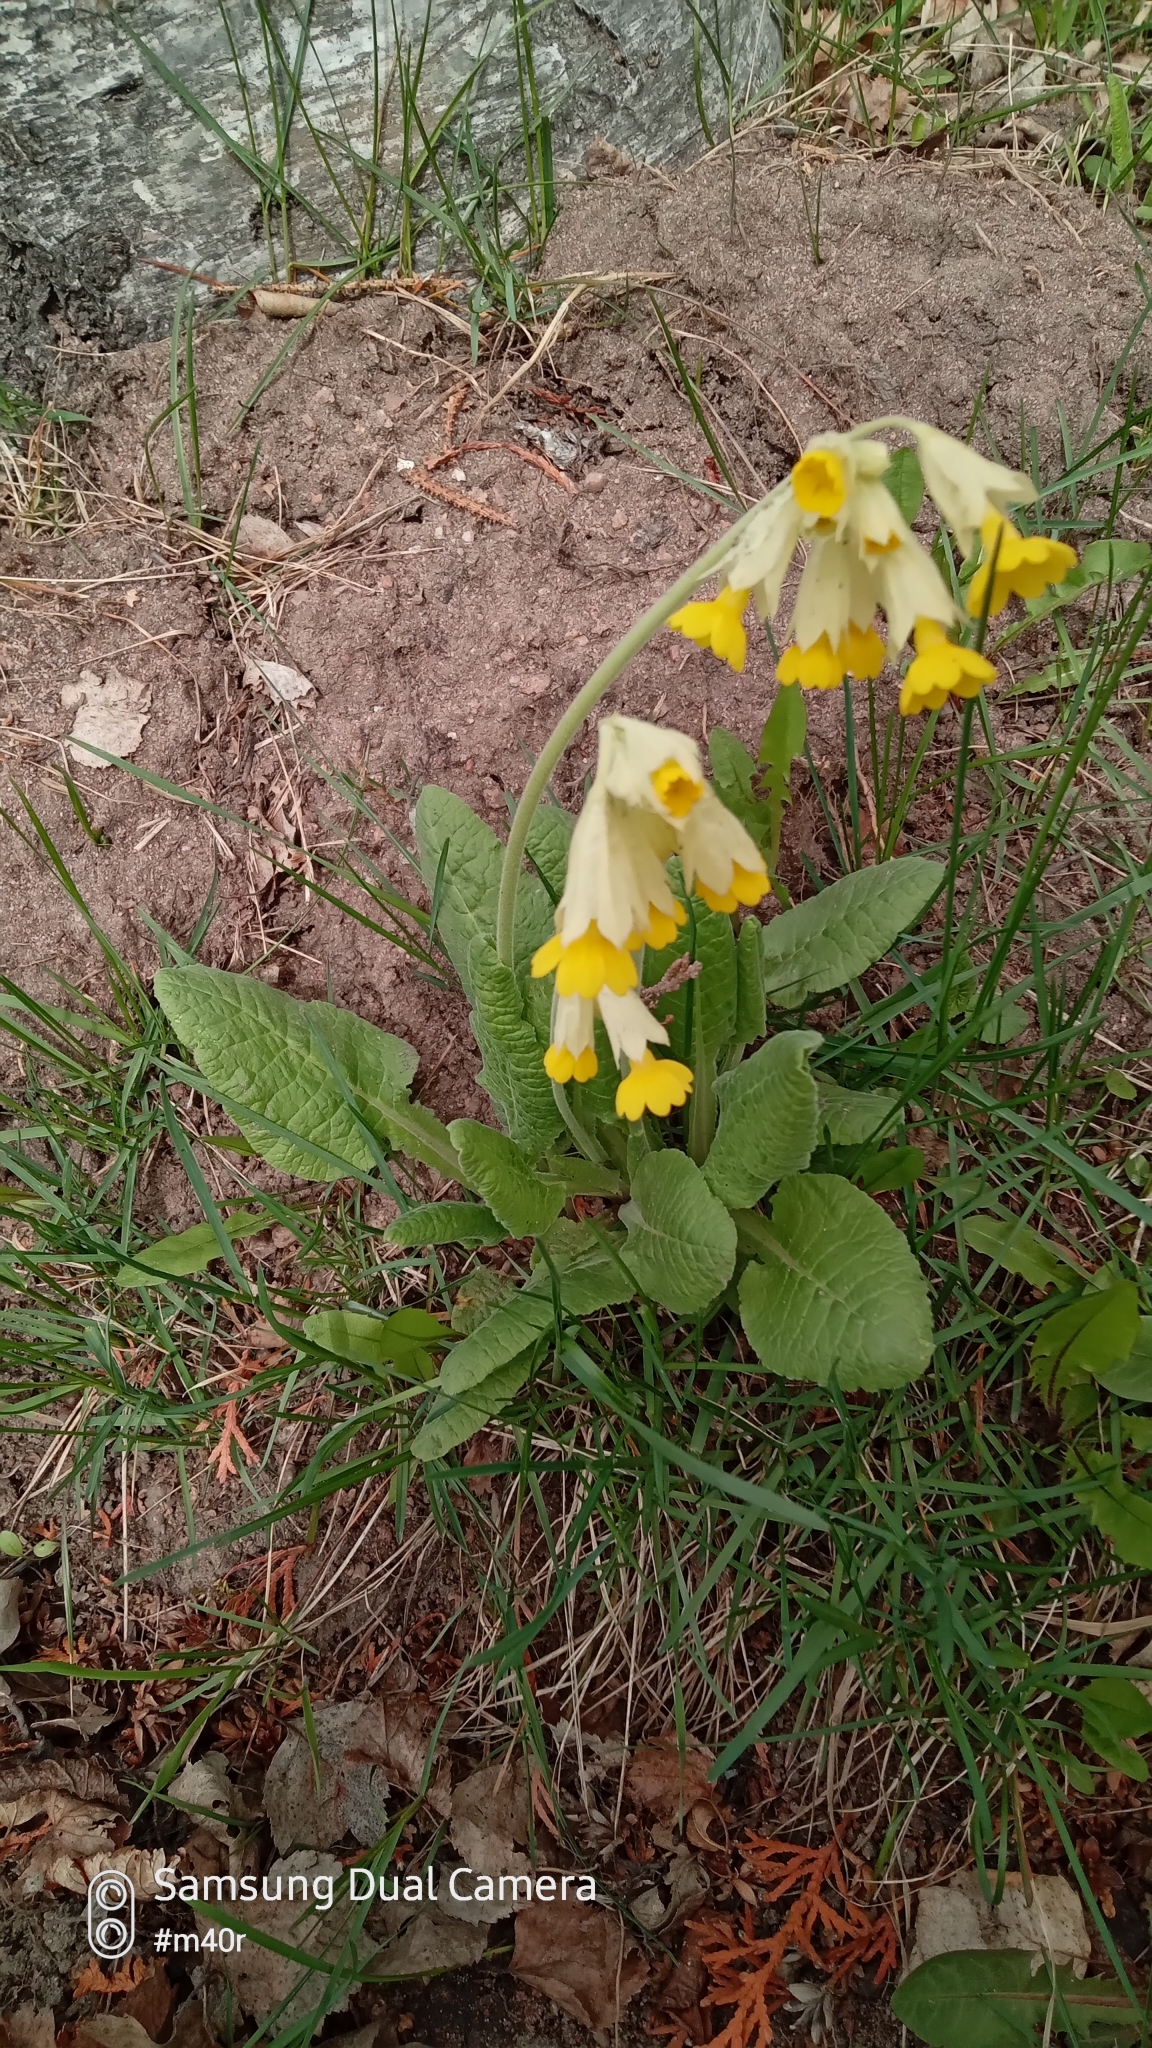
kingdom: Plantae
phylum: Tracheophyta
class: Magnoliopsida
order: Ericales
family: Primulaceae
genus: Primula
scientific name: Primula veris
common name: Cowslip
